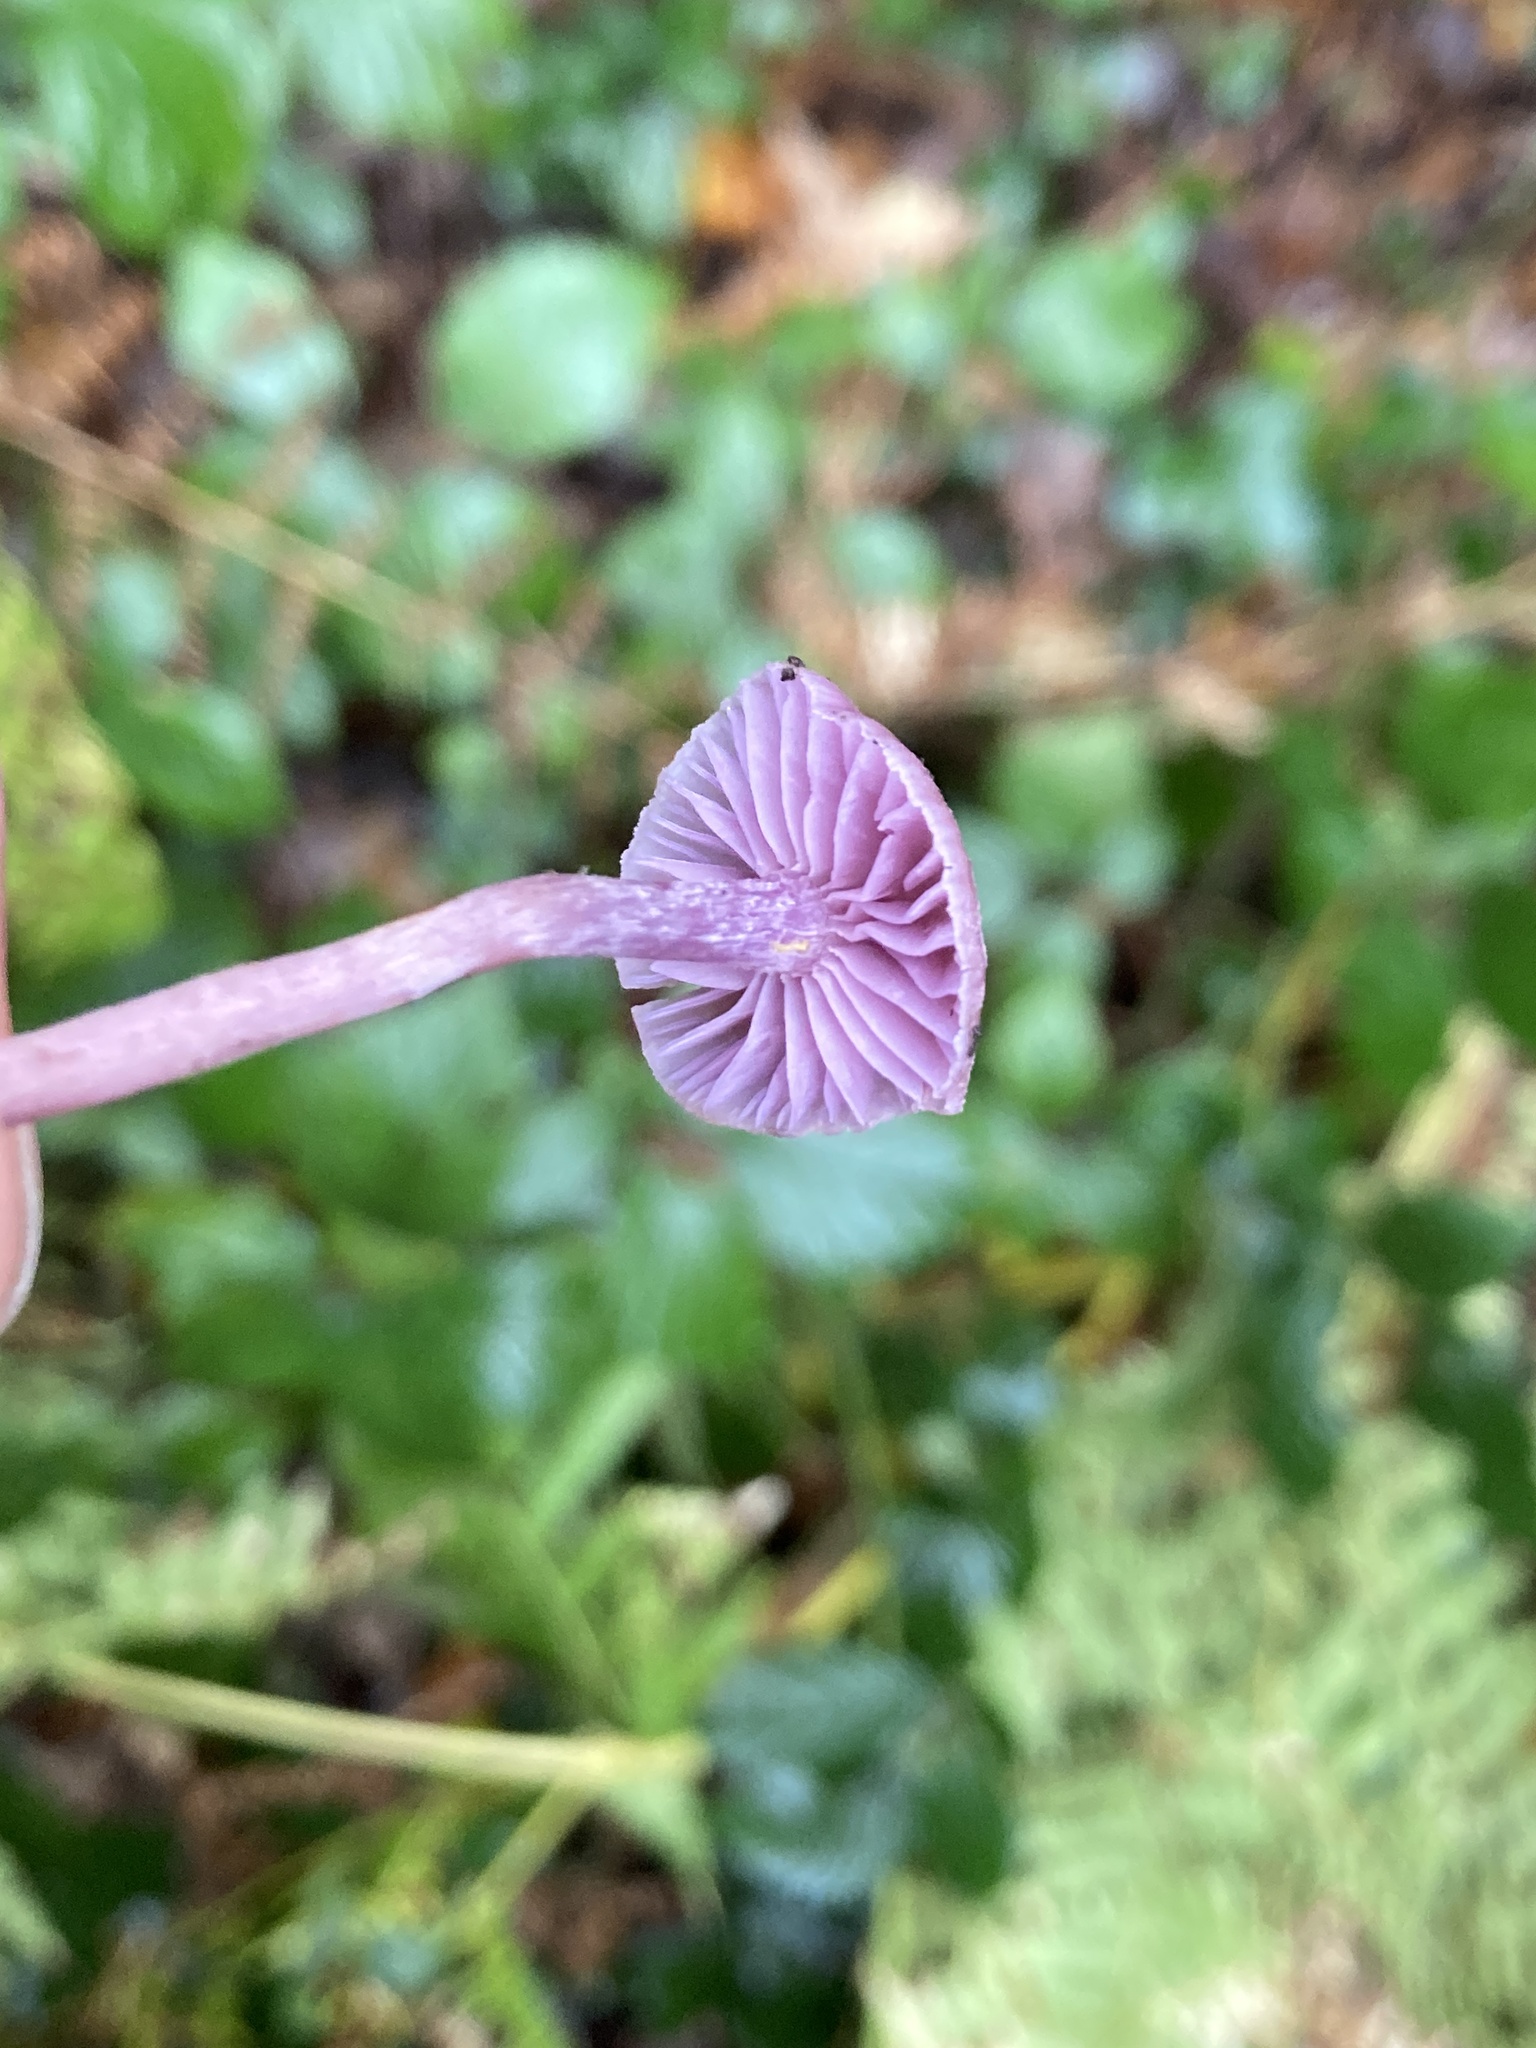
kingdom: Fungi
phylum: Basidiomycota
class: Agaricomycetes
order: Agaricales
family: Hydnangiaceae
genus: Laccaria
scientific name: Laccaria amethystina
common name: Amethyst deceiver
